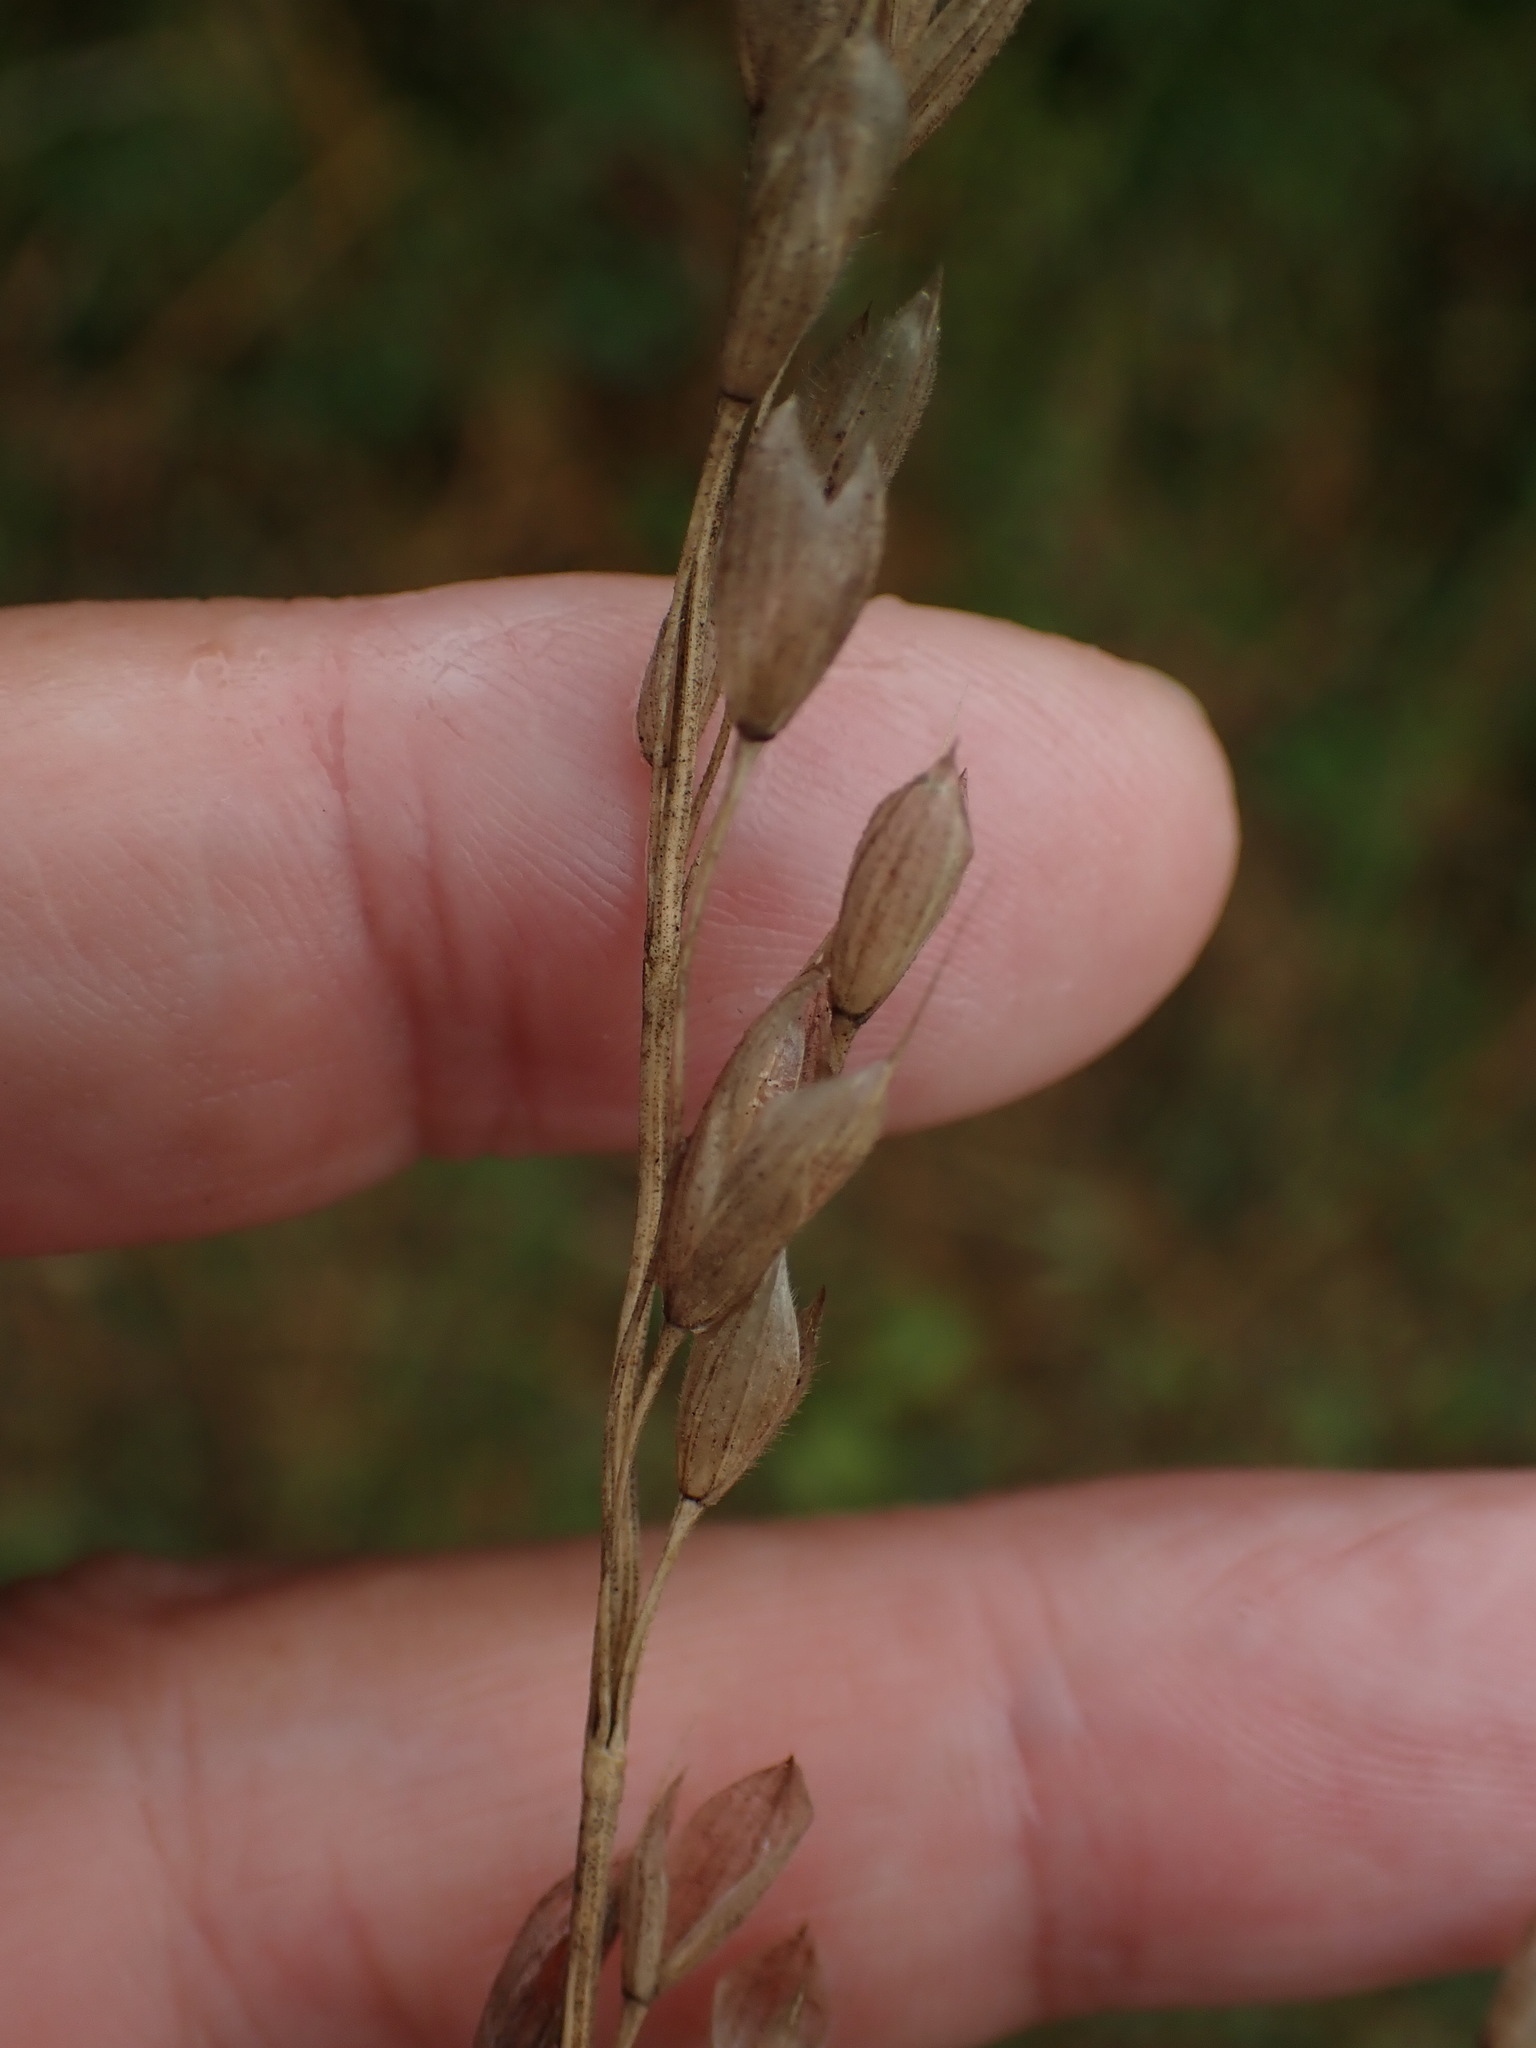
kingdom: Plantae
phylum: Tracheophyta
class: Liliopsida
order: Poales
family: Poaceae
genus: Bromus
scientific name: Bromus hordeaceus
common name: Soft brome
